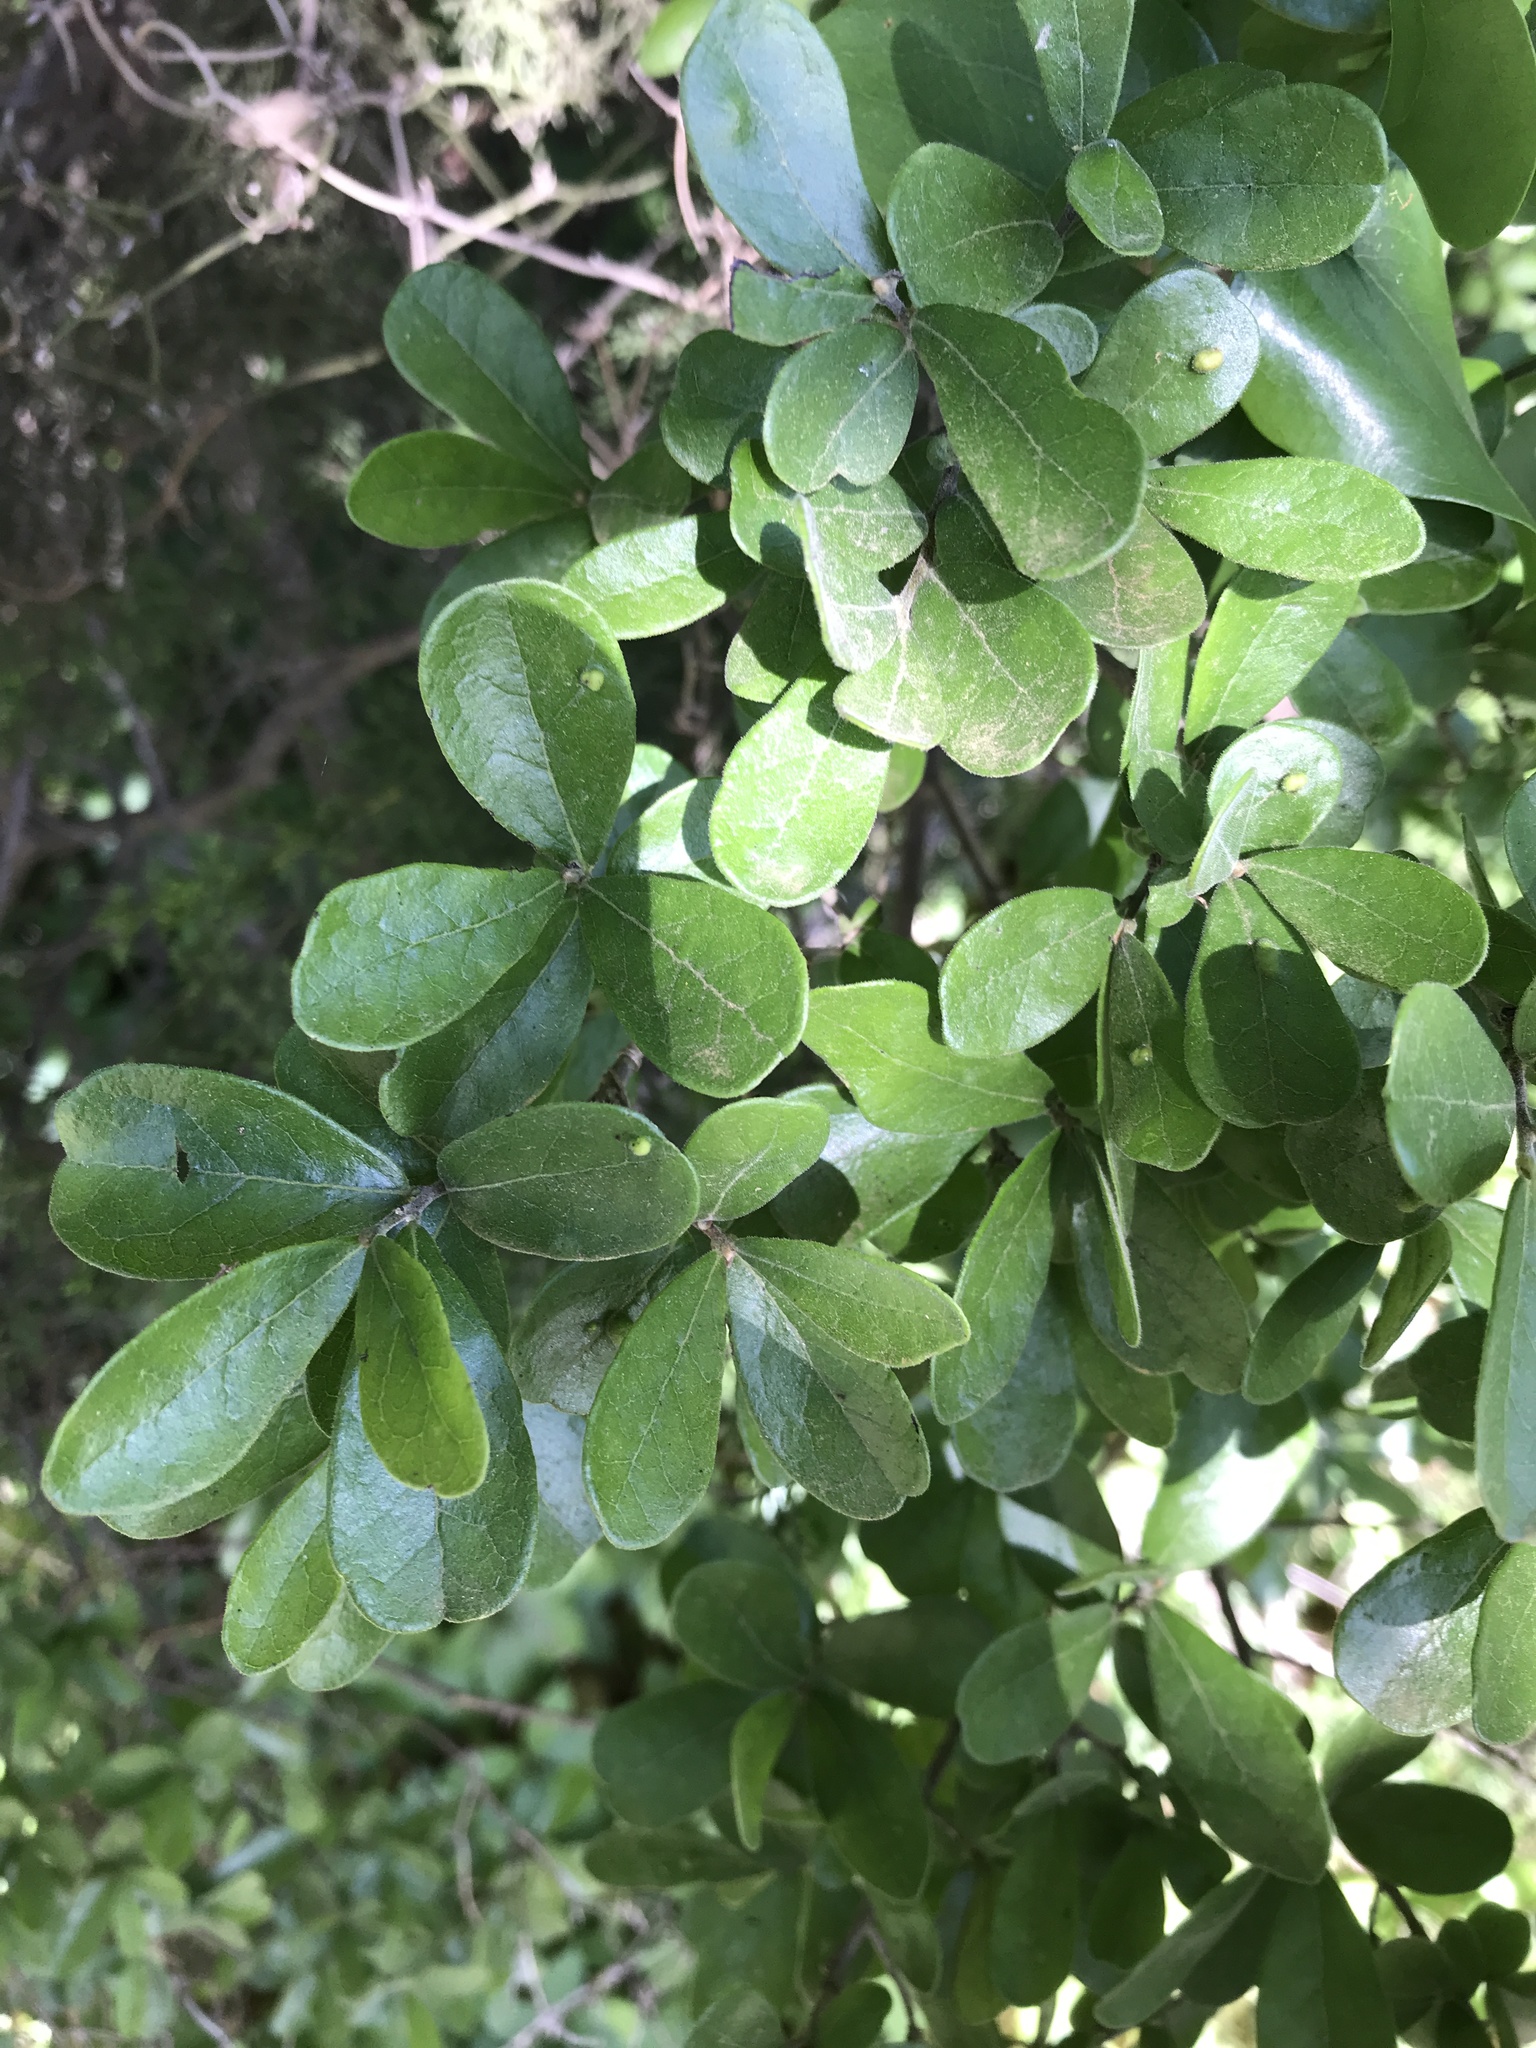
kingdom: Plantae
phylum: Tracheophyta
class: Magnoliopsida
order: Ericales
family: Ebenaceae
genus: Diospyros
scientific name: Diospyros texana
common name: Texas persimmon
